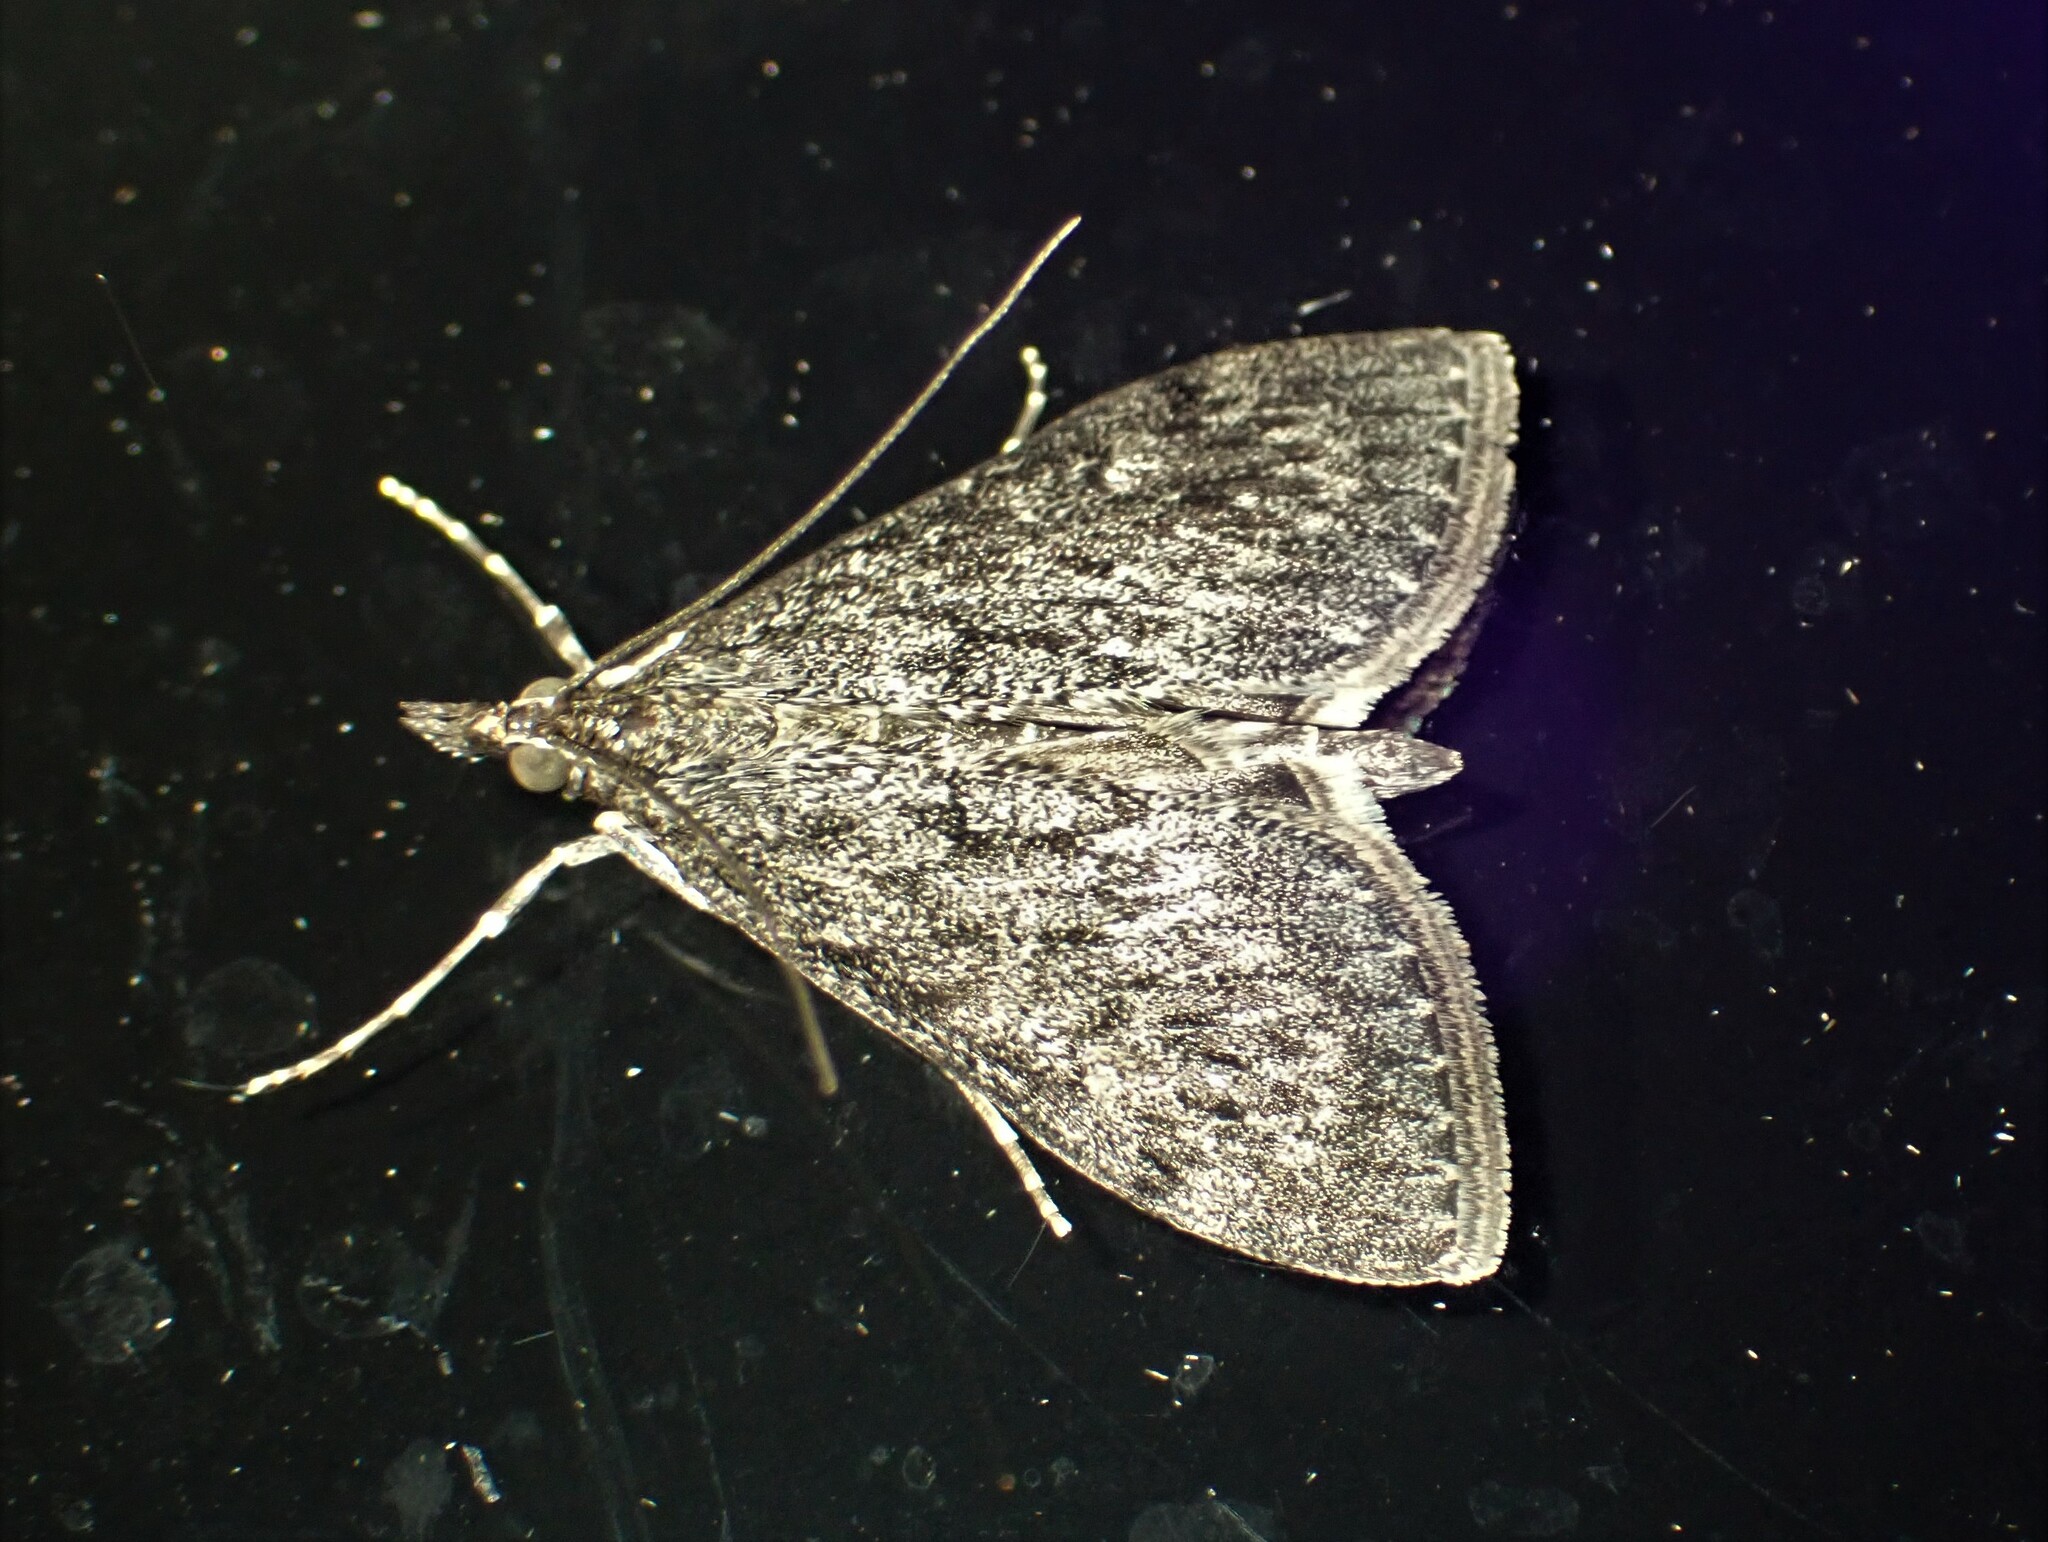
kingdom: Animalia
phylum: Arthropoda
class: Insecta
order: Lepidoptera
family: Crambidae
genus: Saucrobotys
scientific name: Saucrobotys fumoferalis
